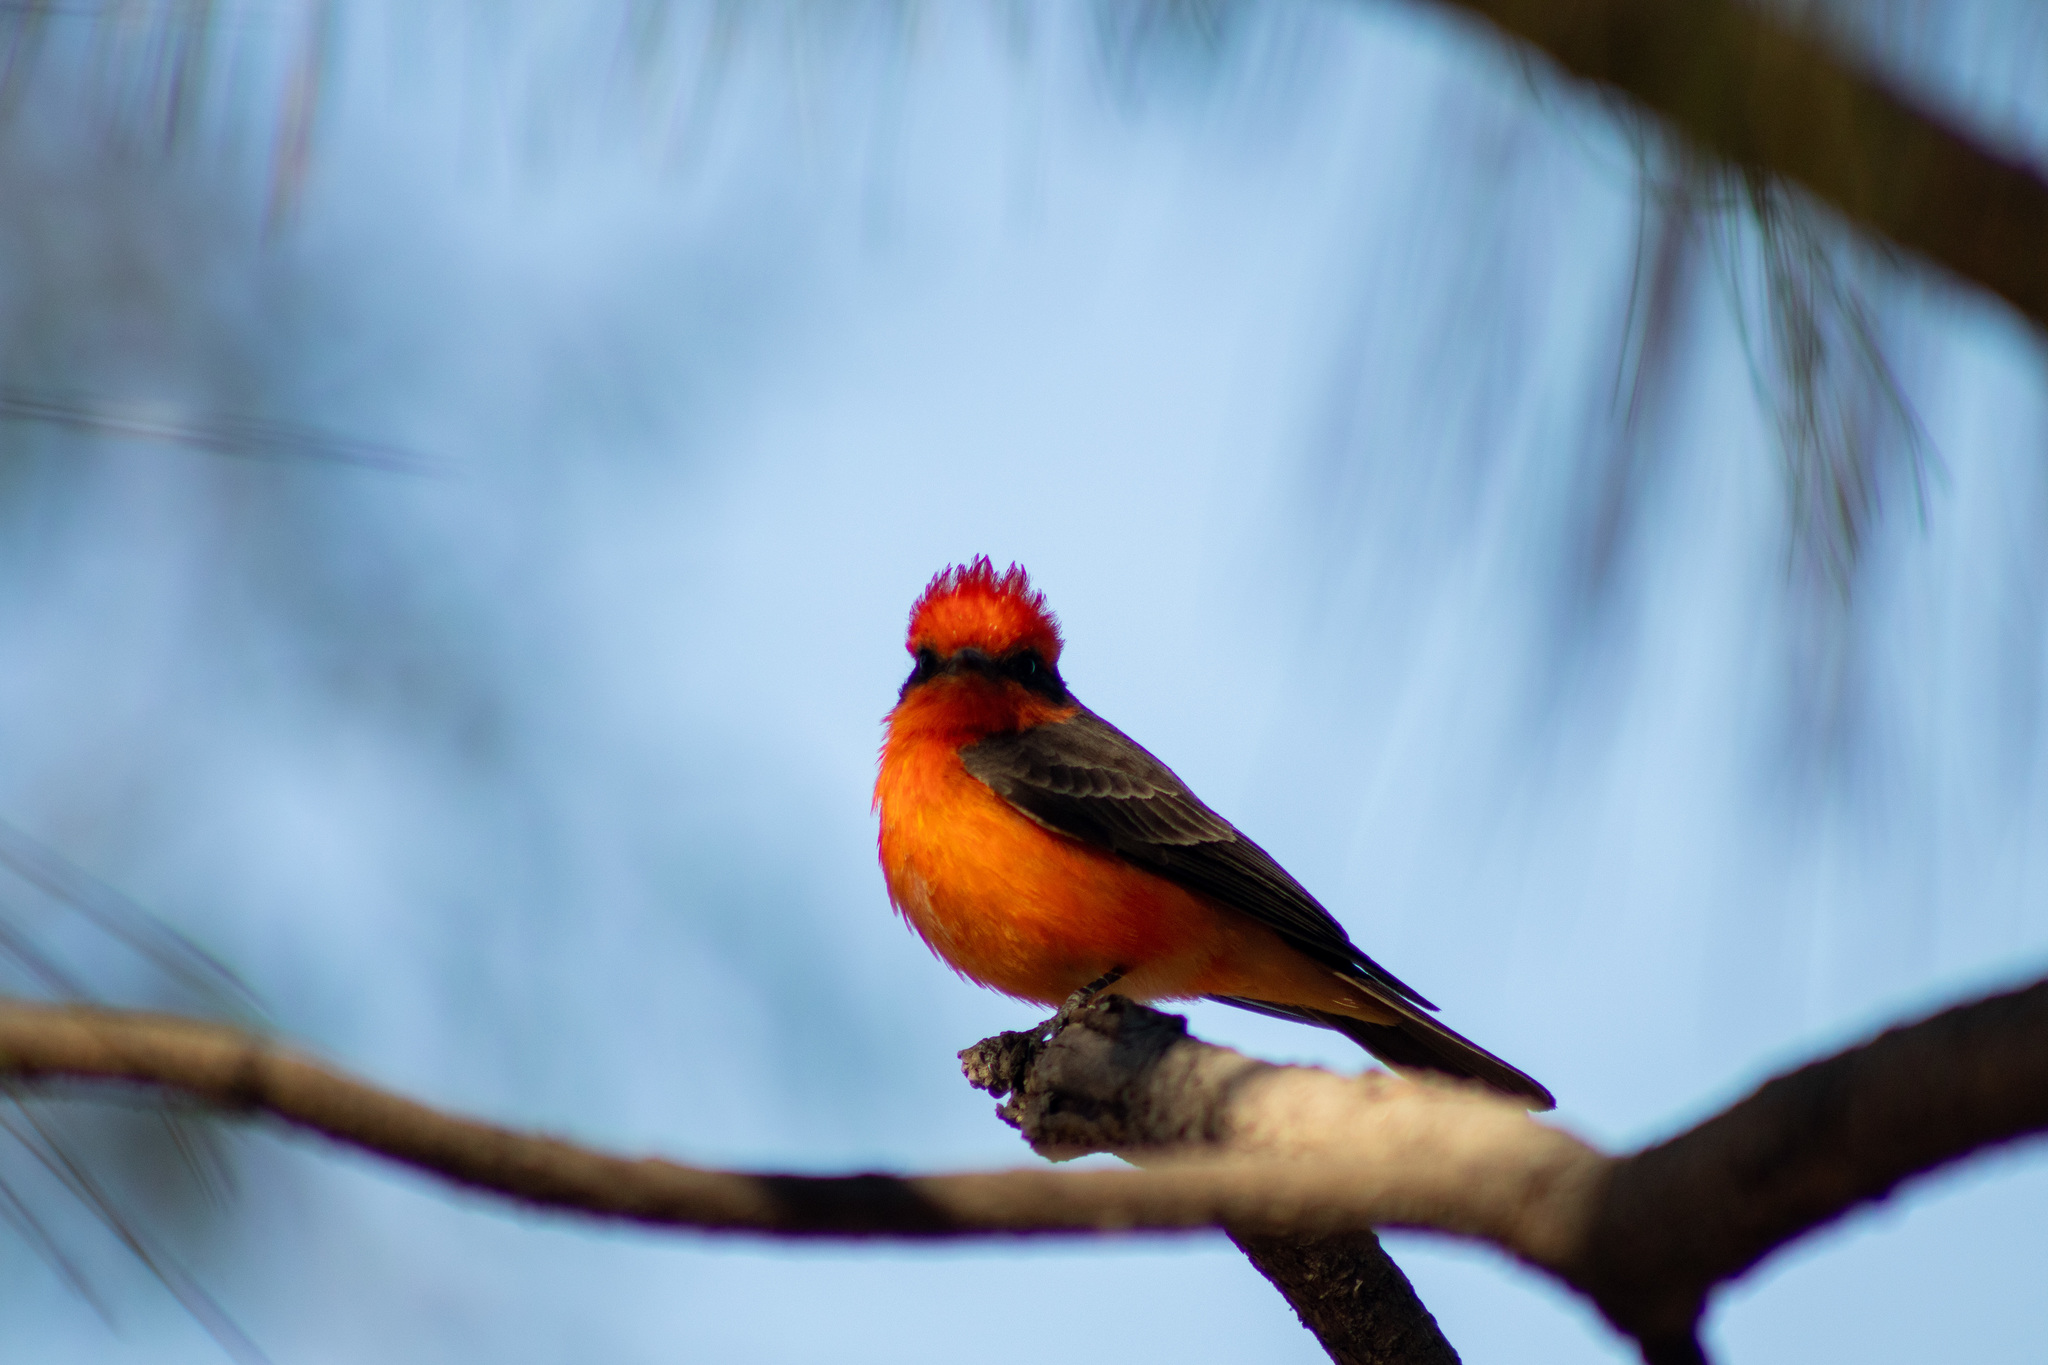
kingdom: Animalia
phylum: Chordata
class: Aves
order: Passeriformes
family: Tyrannidae
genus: Pyrocephalus
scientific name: Pyrocephalus rubinus
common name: Vermilion flycatcher
